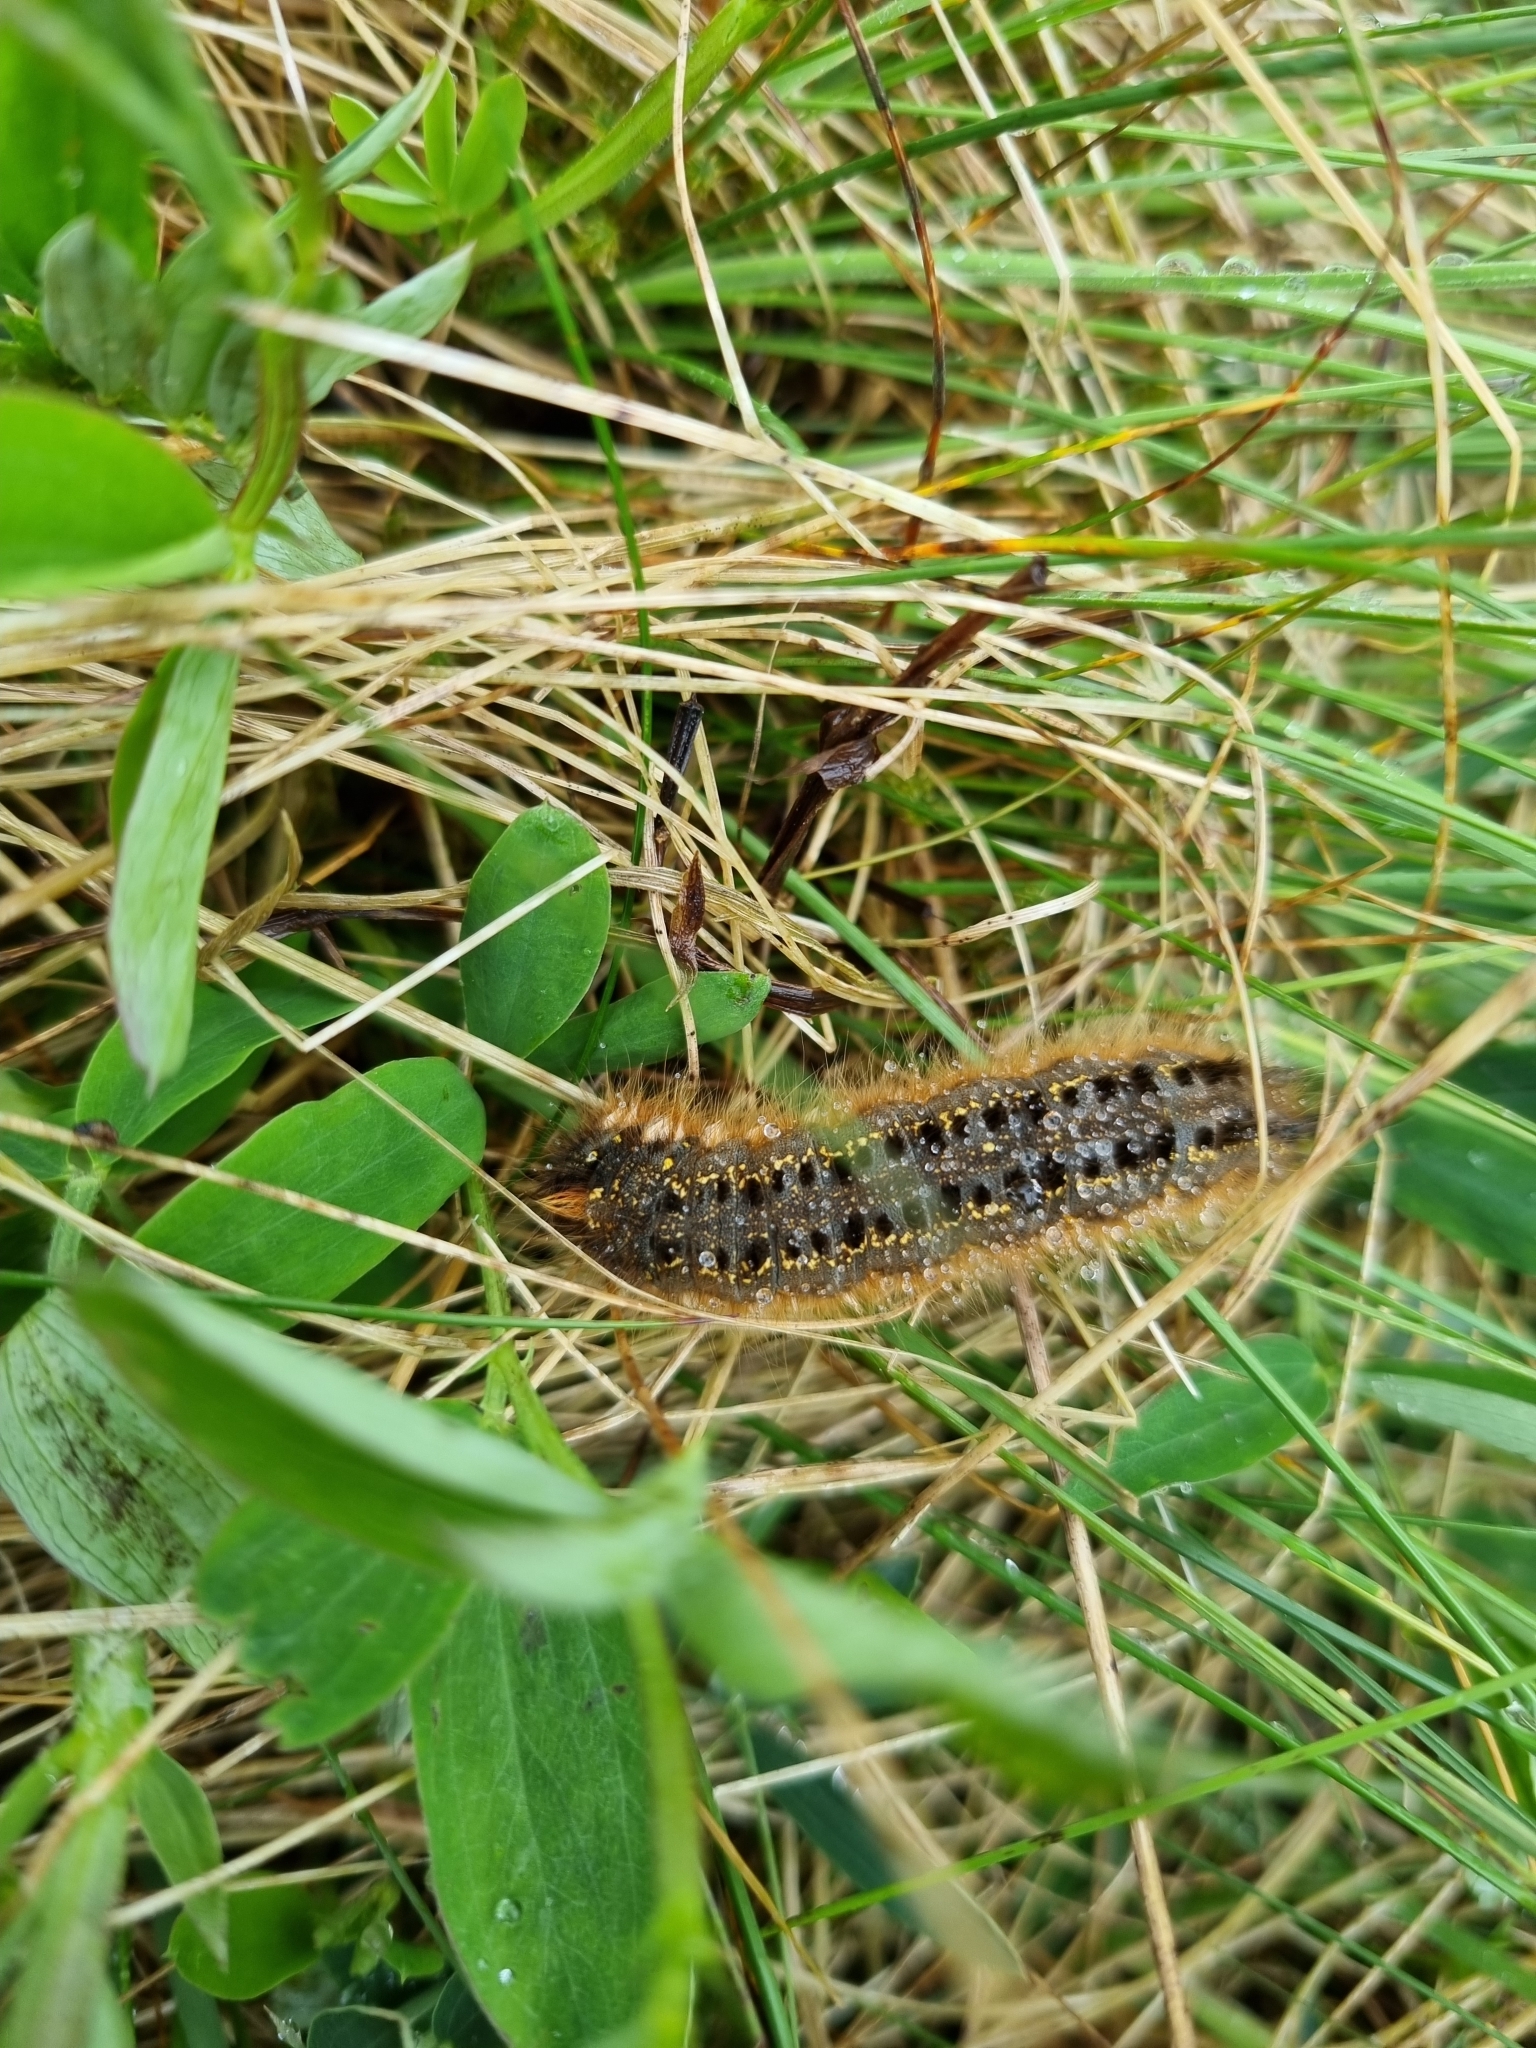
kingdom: Animalia
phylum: Arthropoda
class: Insecta
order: Lepidoptera
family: Lasiocampidae
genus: Euthrix
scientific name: Euthrix potatoria
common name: Drinker
